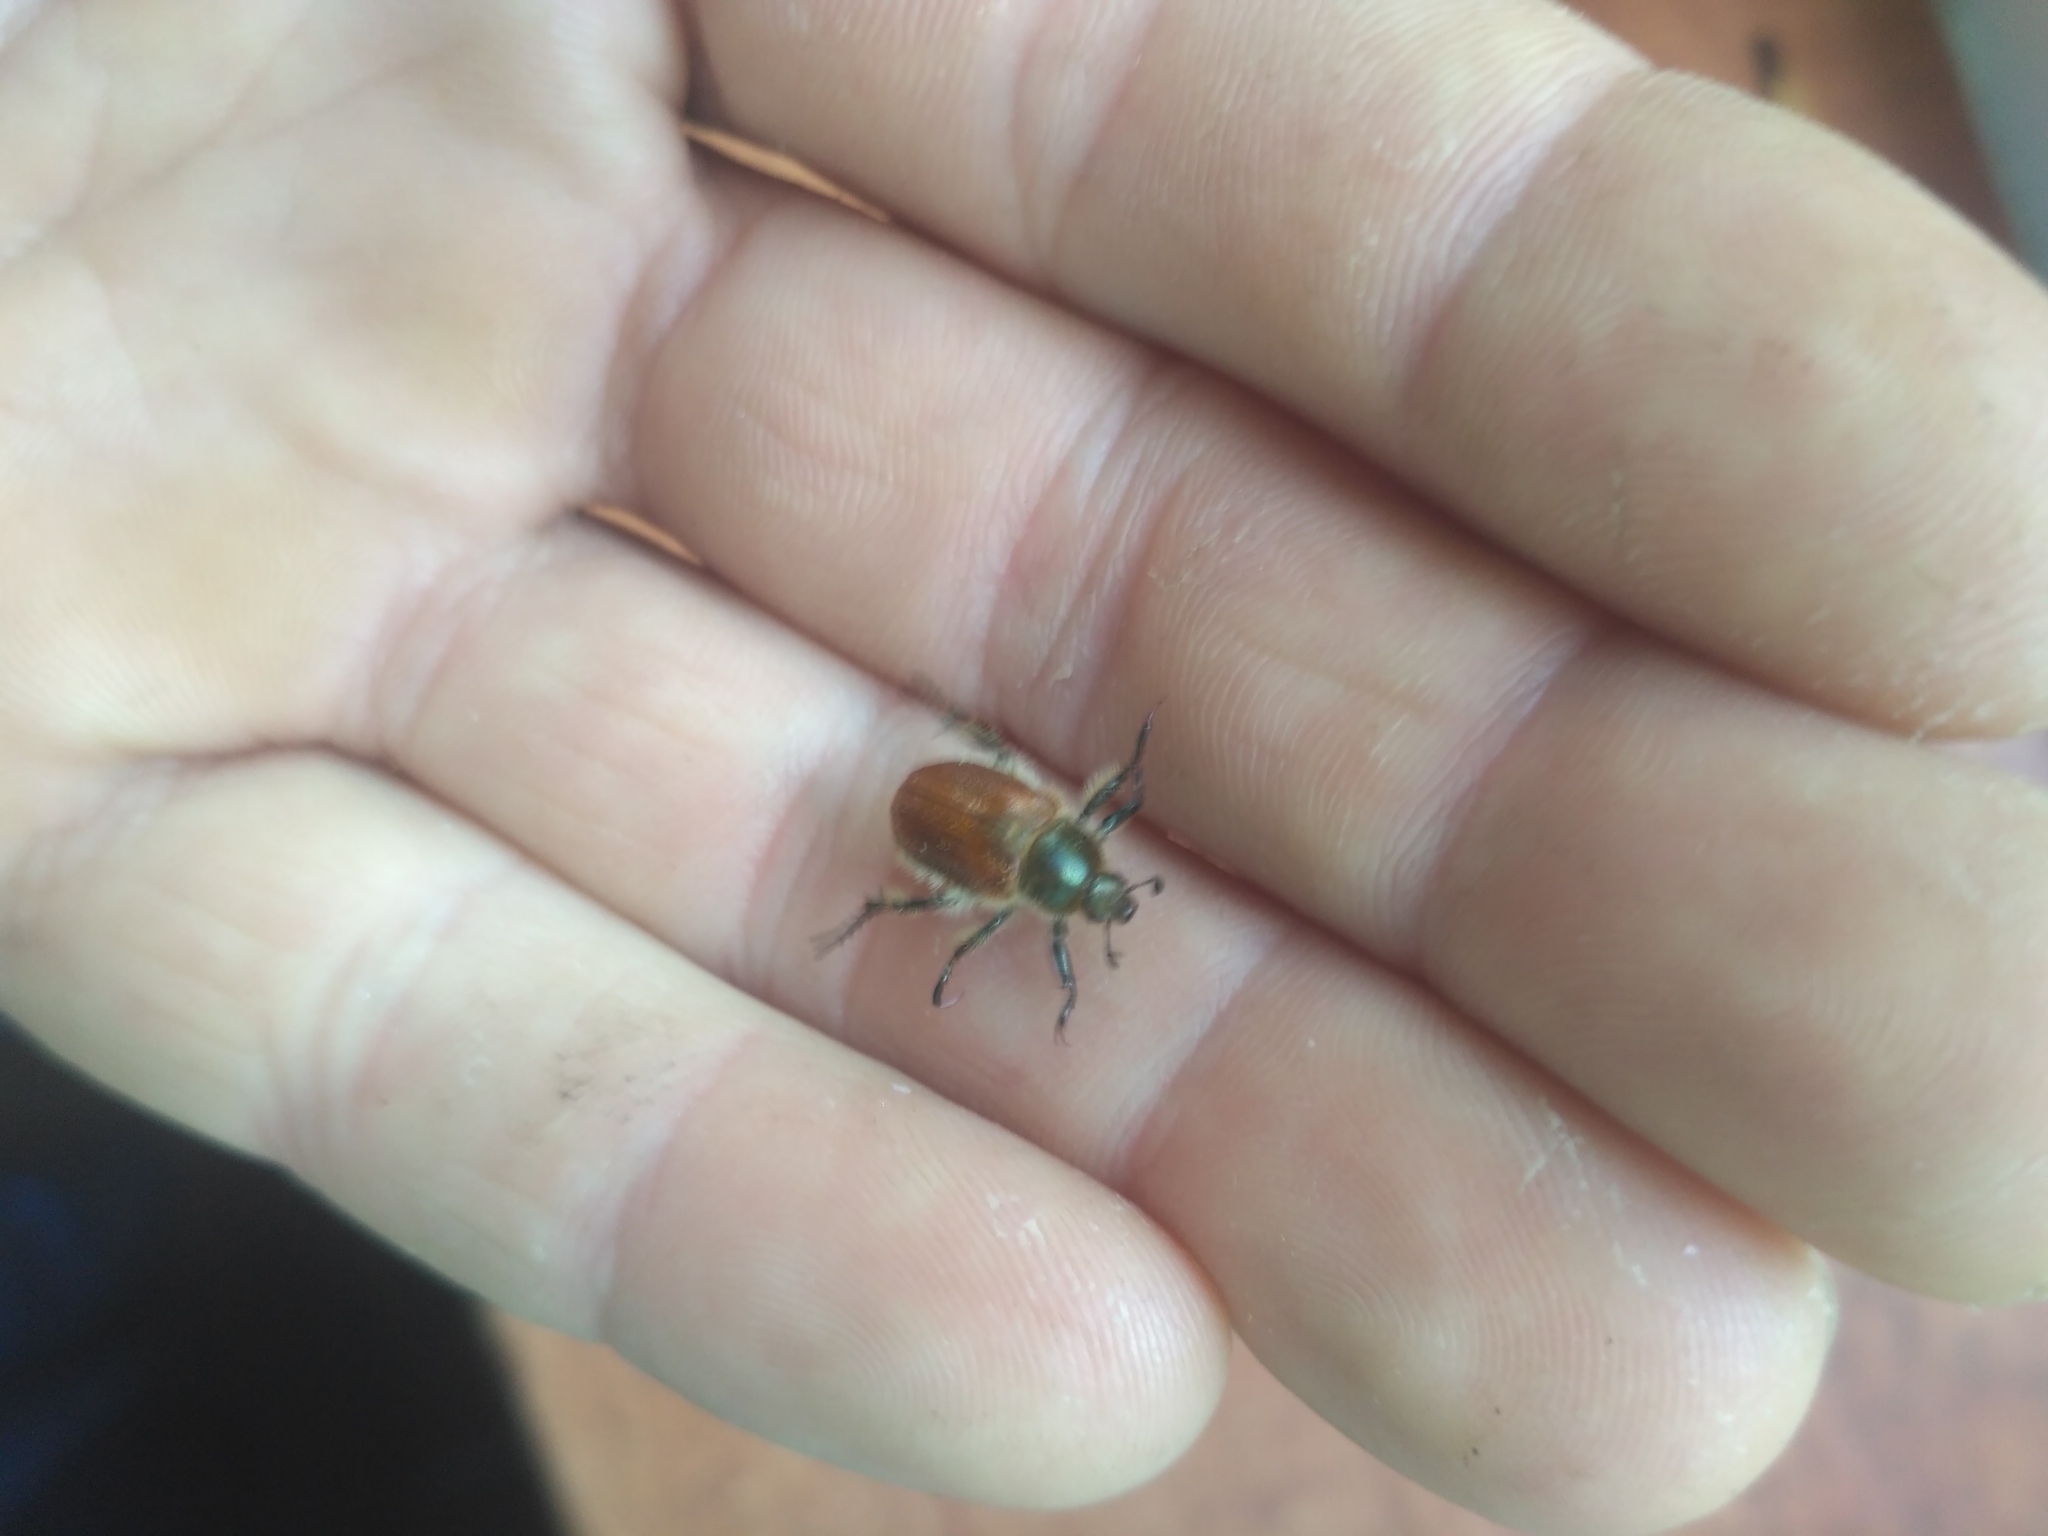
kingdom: Animalia
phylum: Arthropoda
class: Insecta
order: Coleoptera
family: Scarabaeidae
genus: Chaetopteroplia
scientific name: Chaetopteroplia segetum
